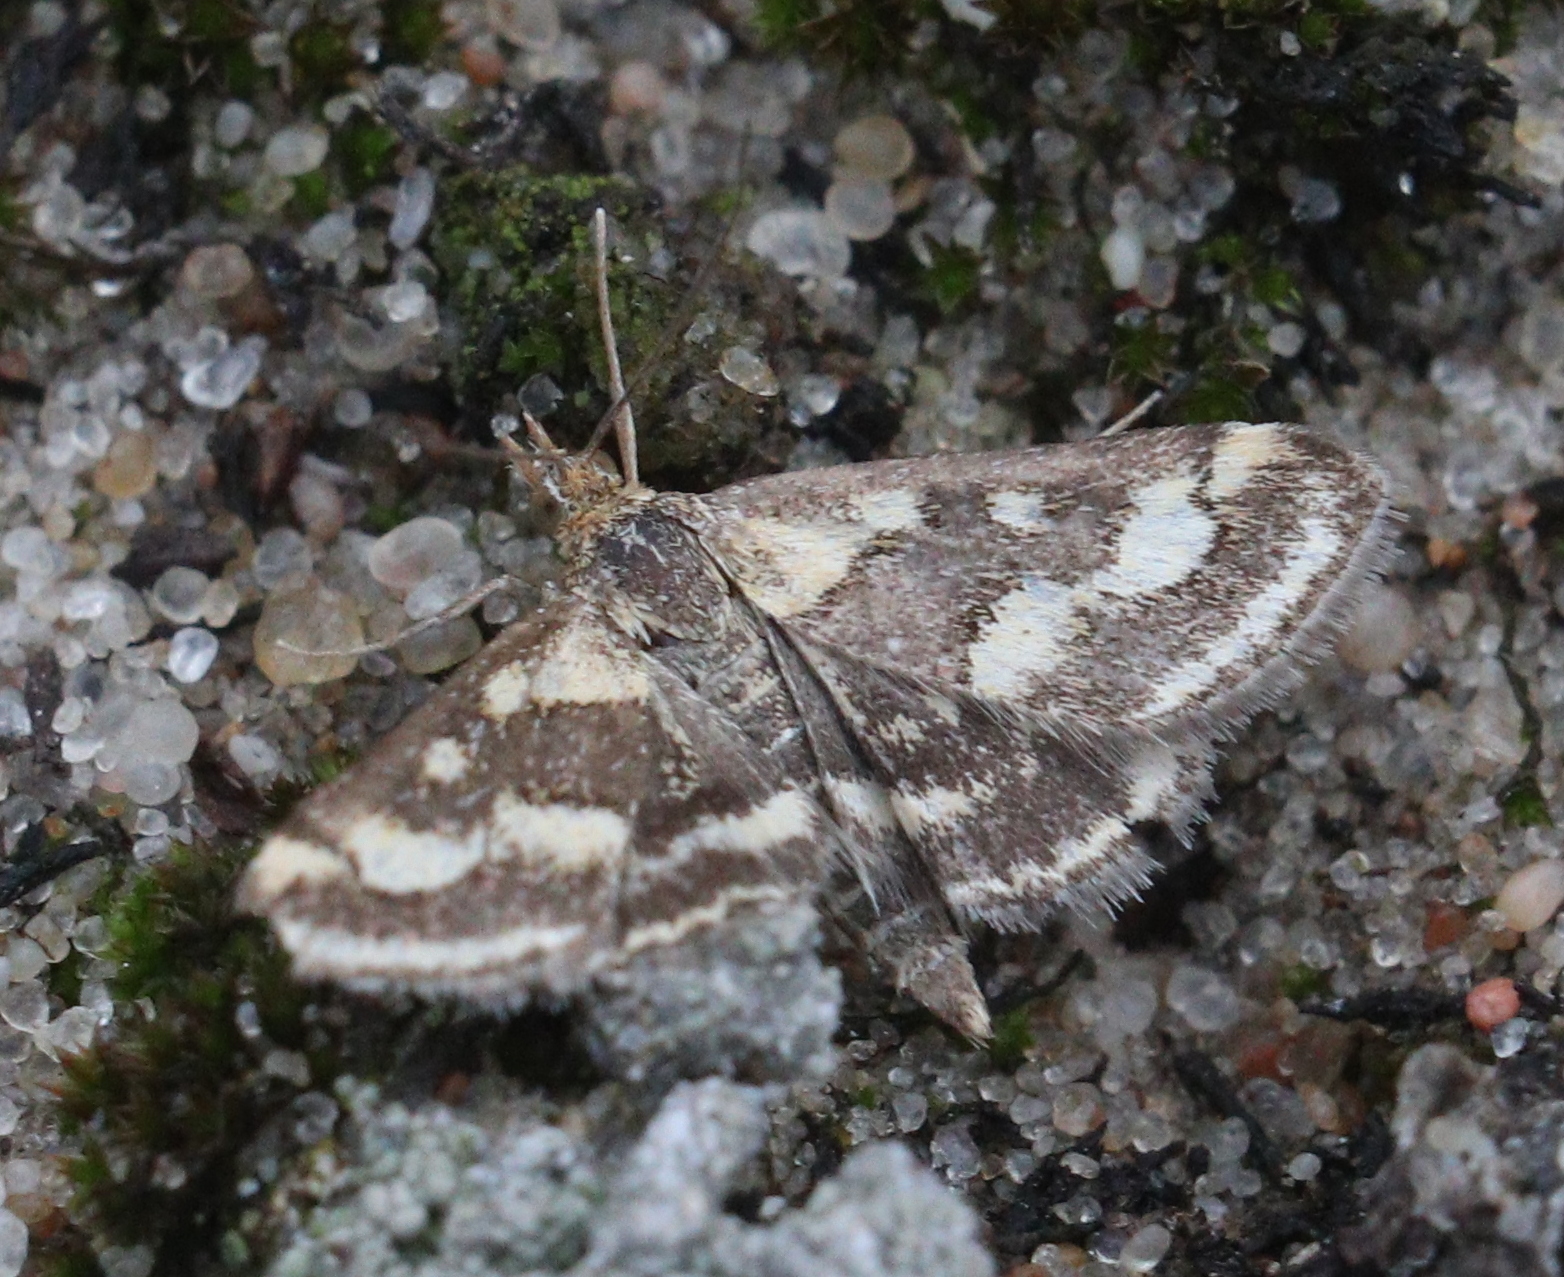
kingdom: Animalia
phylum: Arthropoda
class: Insecta
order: Lepidoptera
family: Crambidae
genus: Pyrausta
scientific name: Pyrausta ostrinalis
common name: Scarce purple & gold
